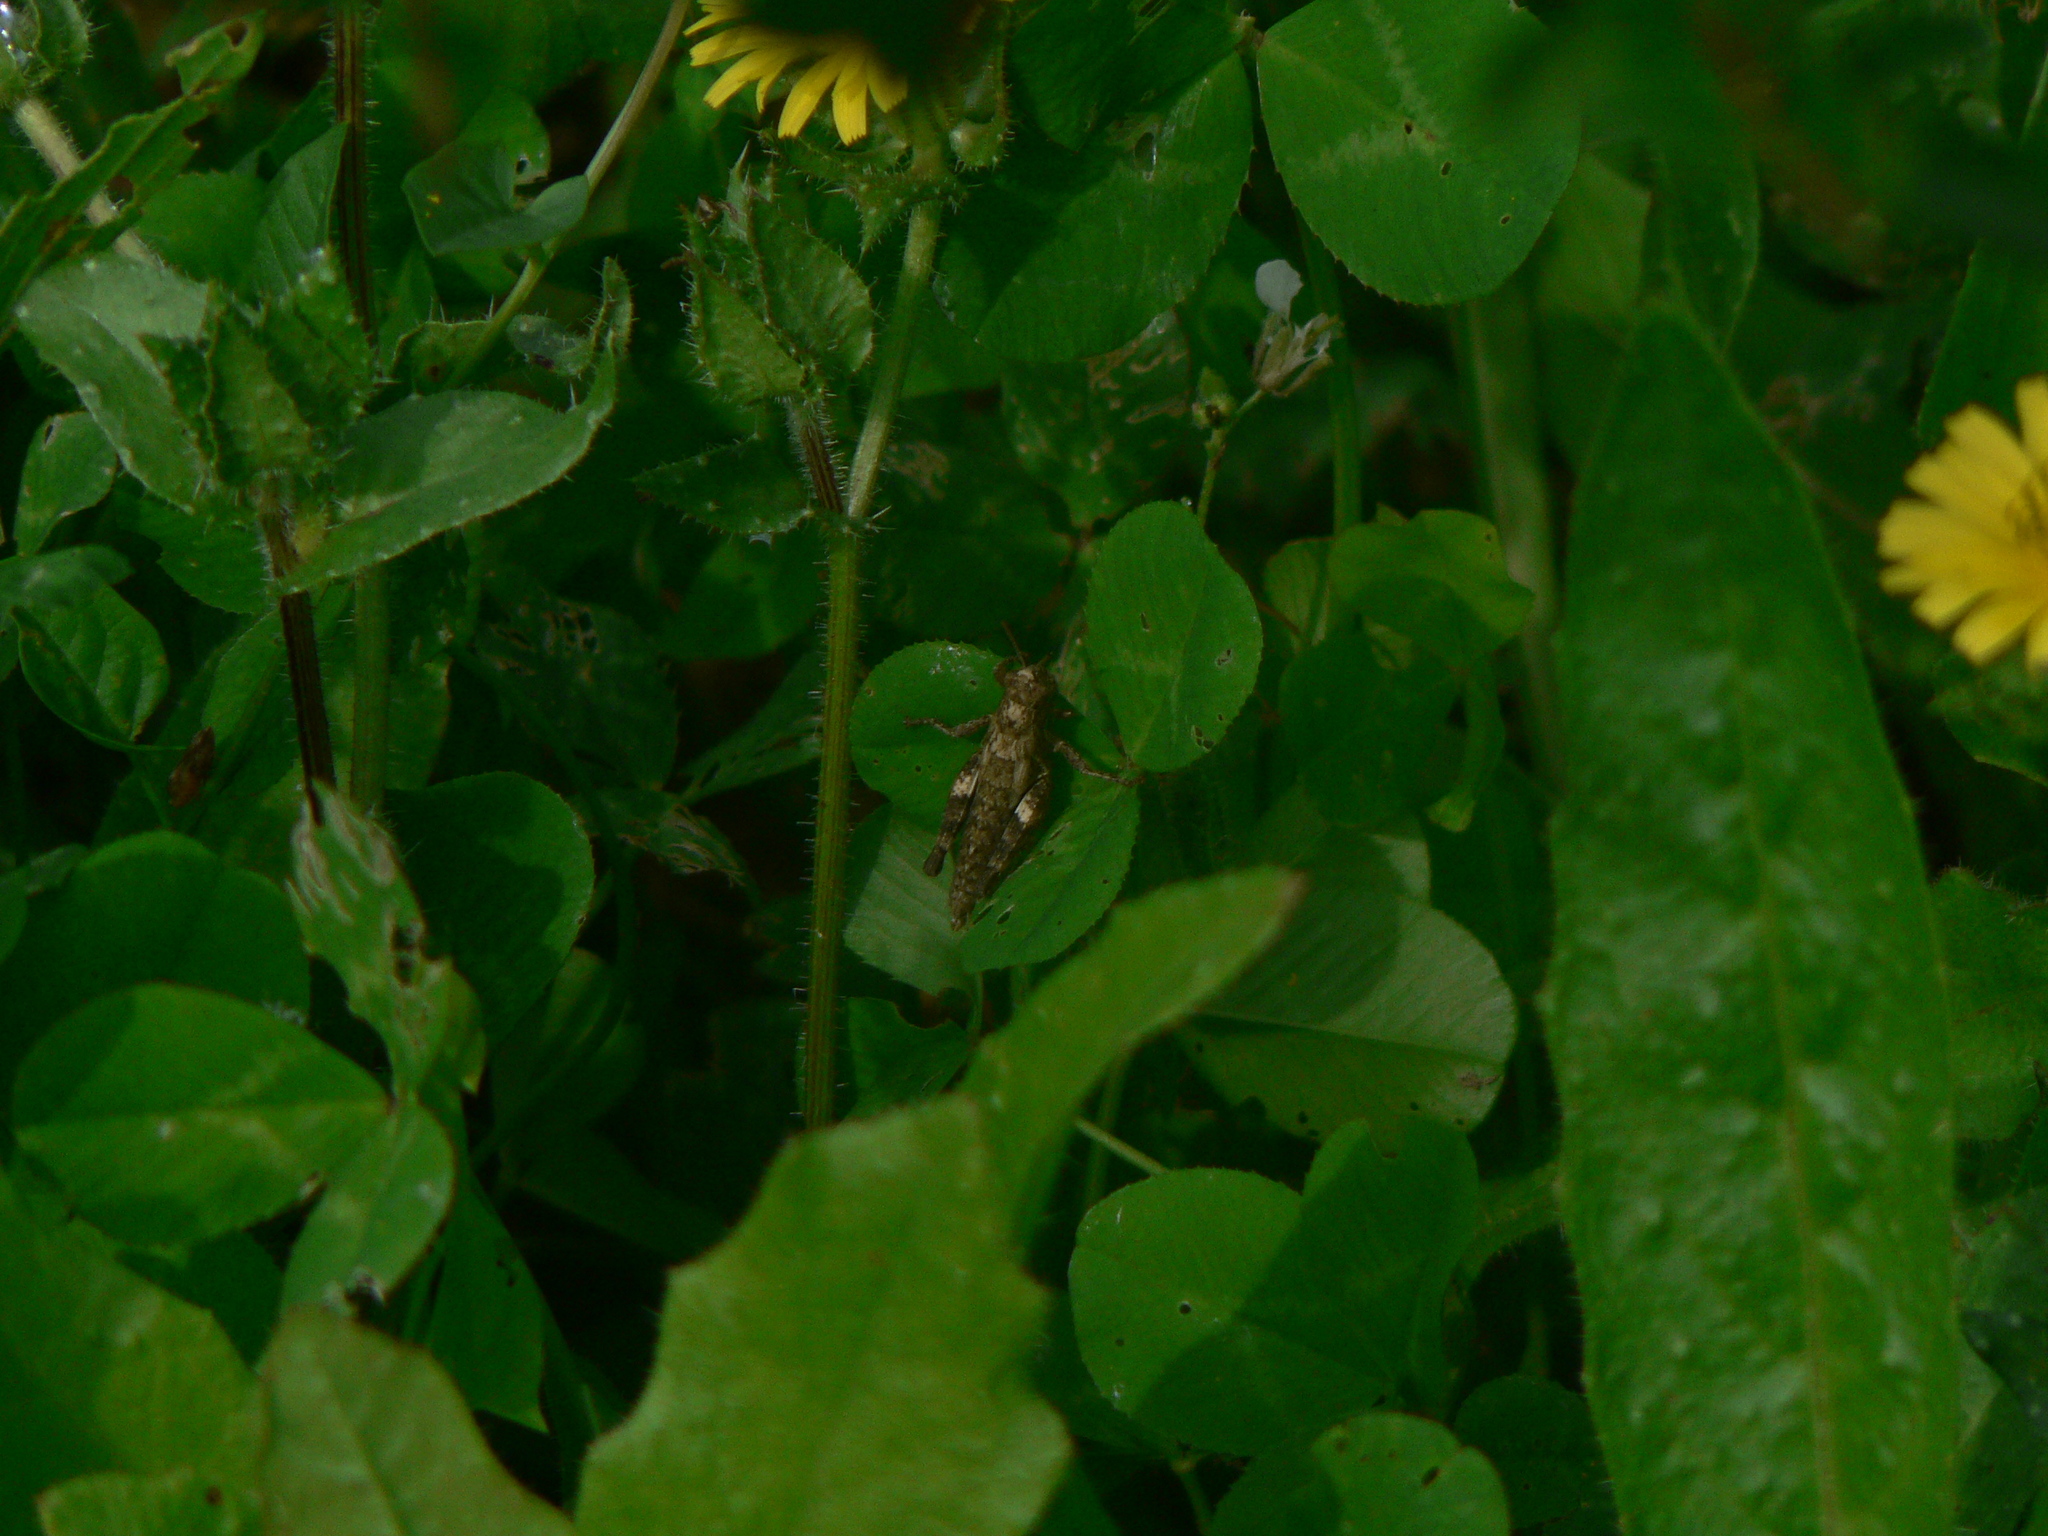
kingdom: Animalia
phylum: Arthropoda
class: Insecta
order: Orthoptera
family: Acrididae
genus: Pezotettix
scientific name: Pezotettix giornae
